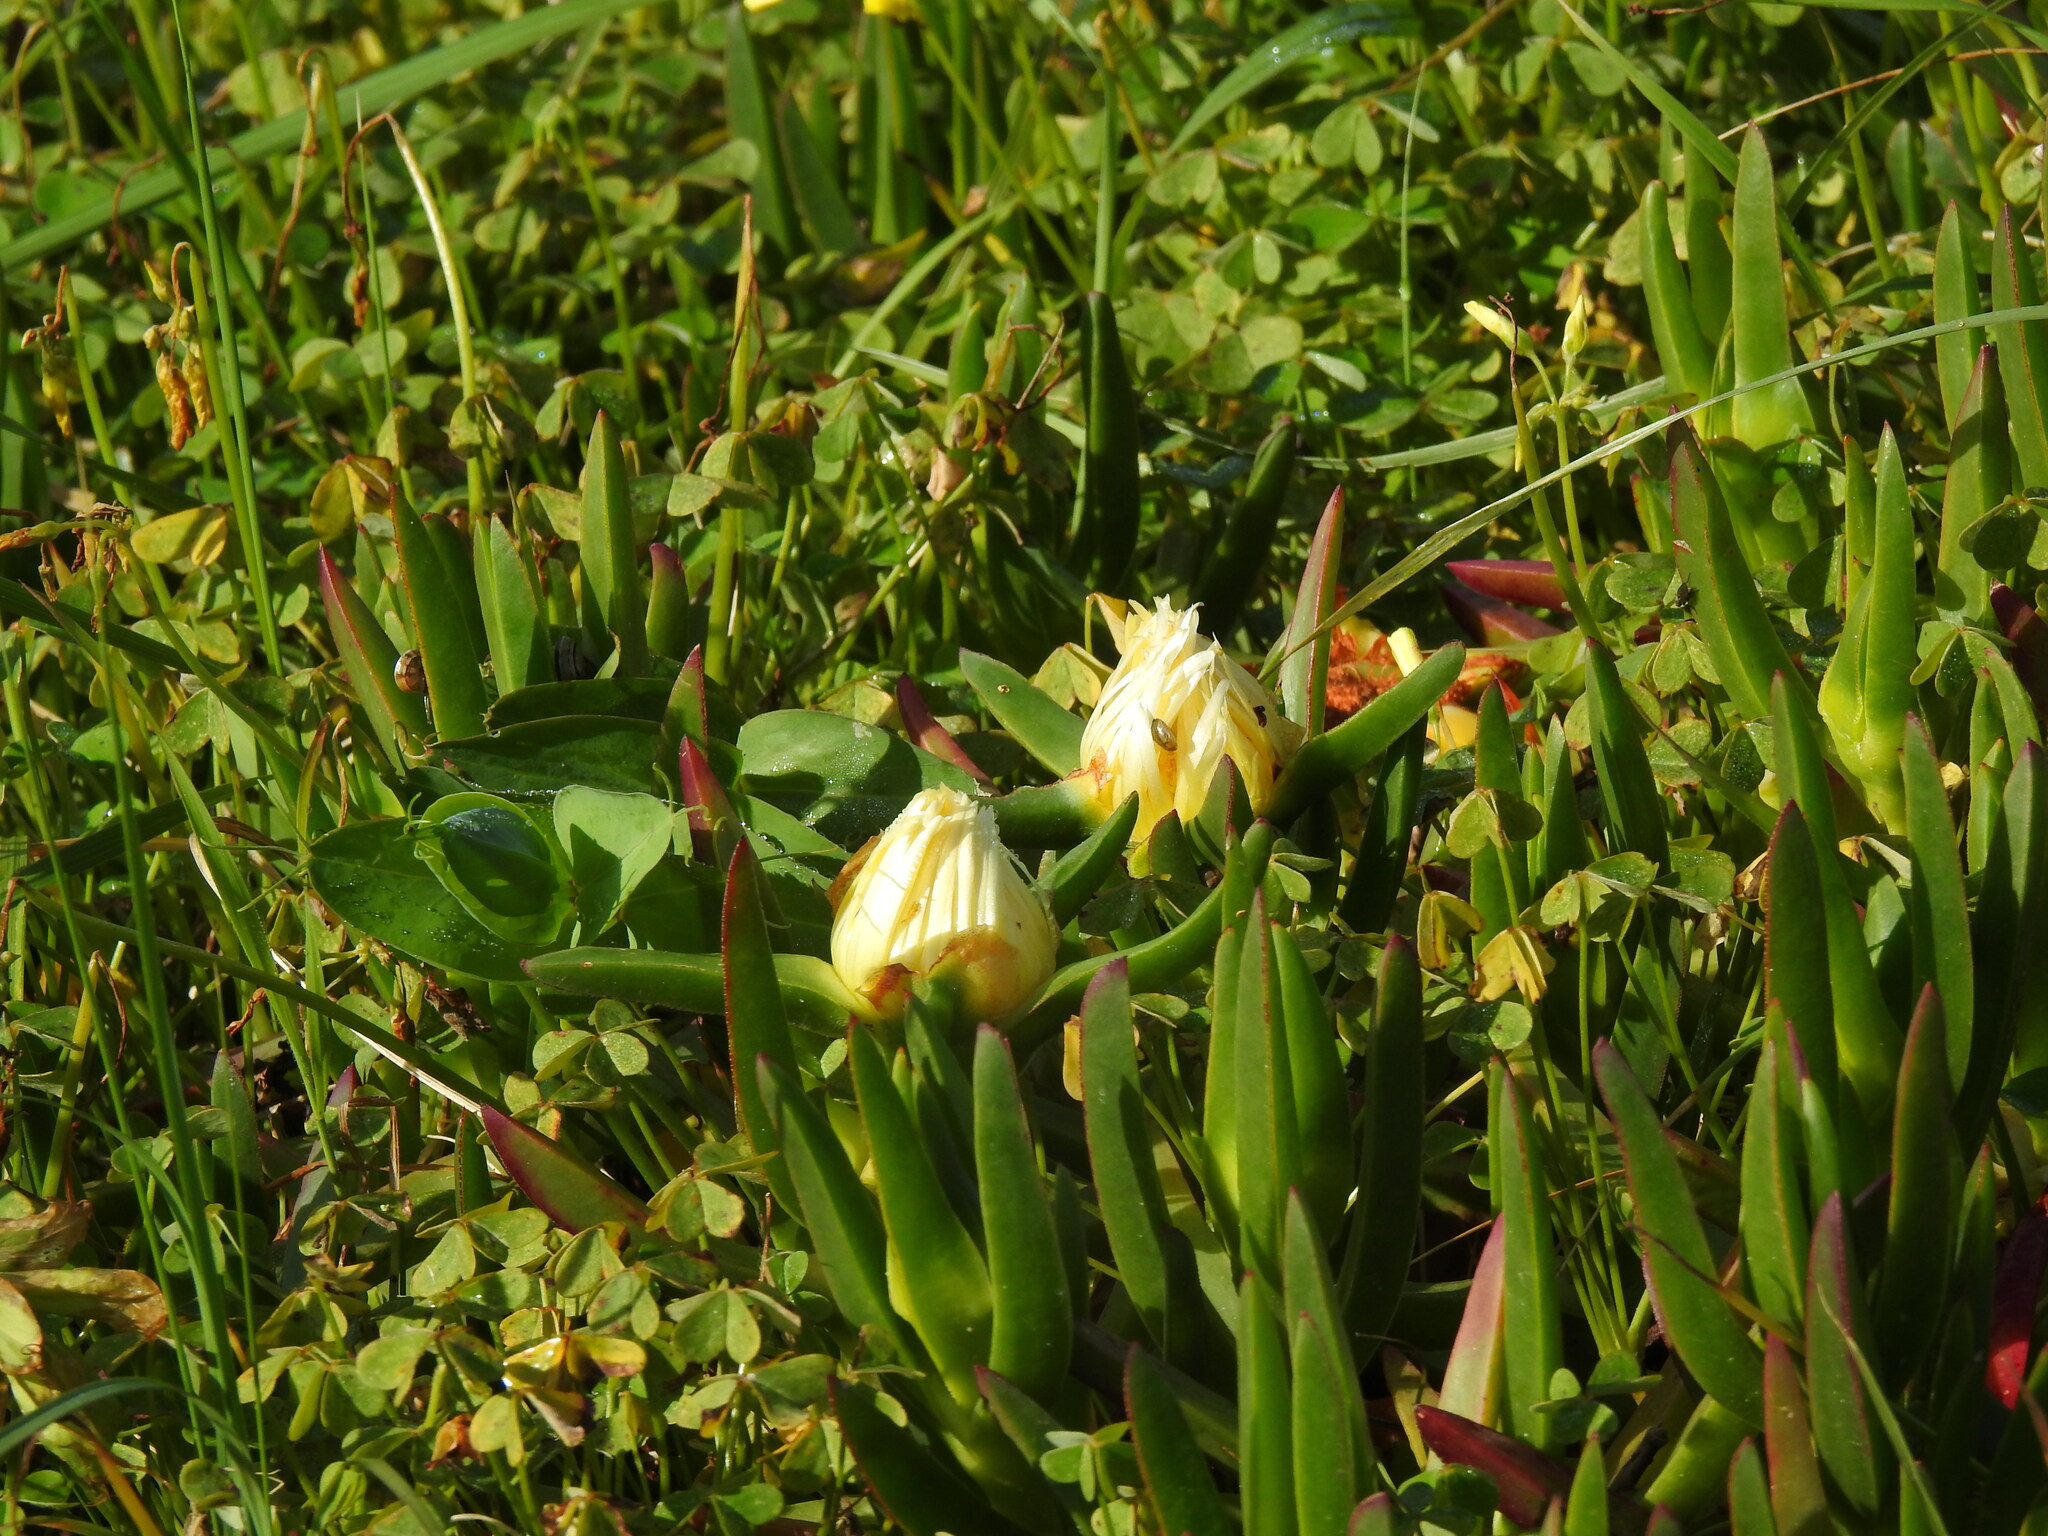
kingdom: Plantae
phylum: Tracheophyta
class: Magnoliopsida
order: Caryophyllales
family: Aizoaceae
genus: Carpobrotus
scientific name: Carpobrotus edulis
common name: Hottentot-fig
